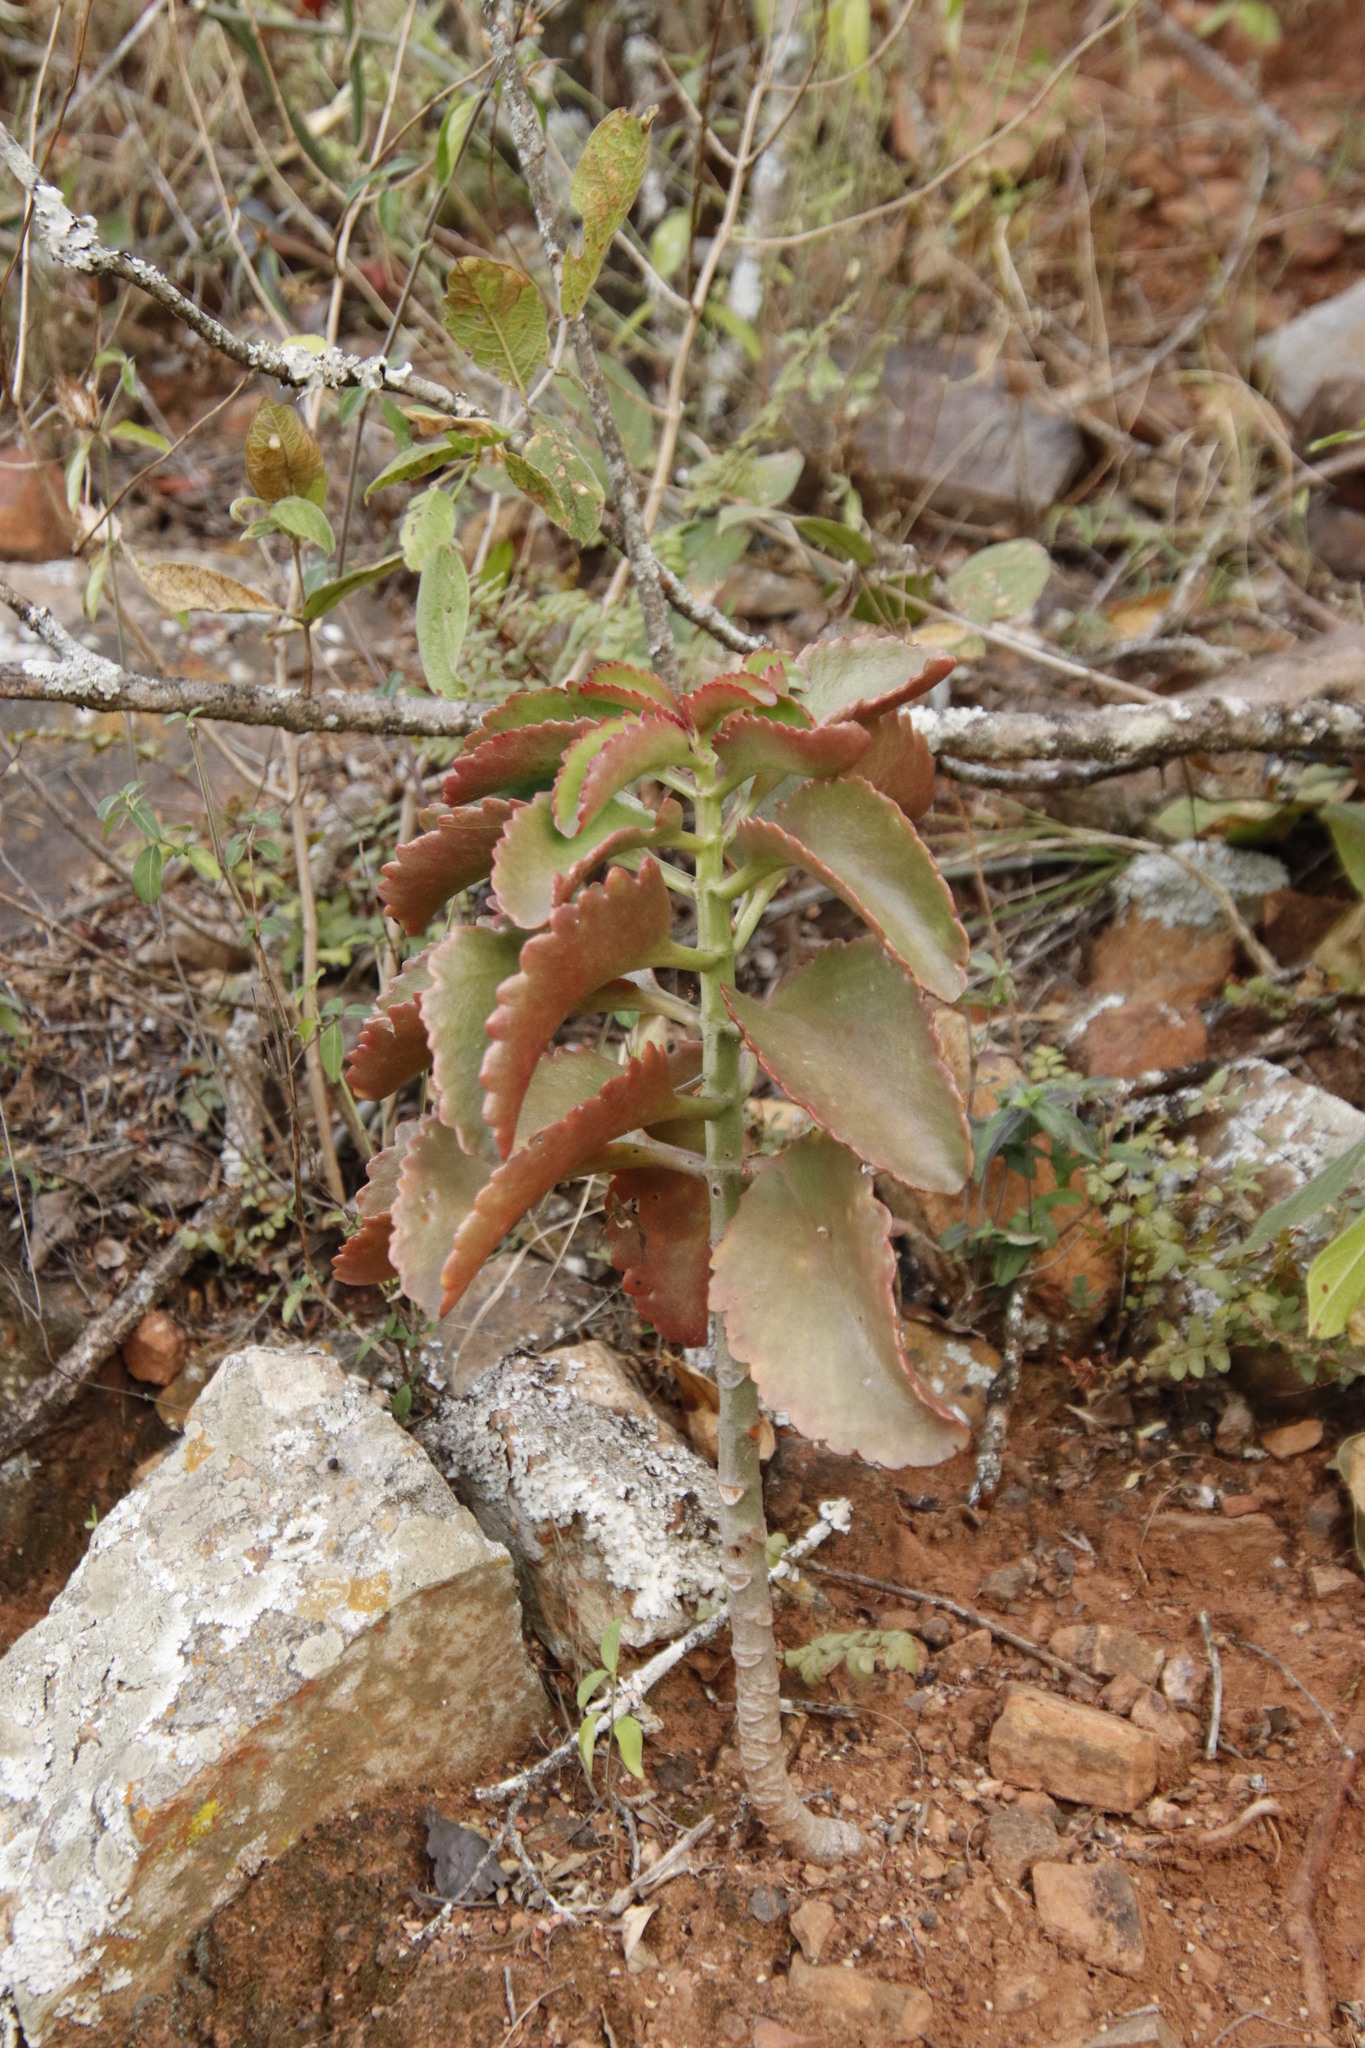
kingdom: Plantae
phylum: Tracheophyta
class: Magnoliopsida
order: Saxifragales
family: Crassulaceae
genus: Kalanchoe
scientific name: Kalanchoe sexangularis
